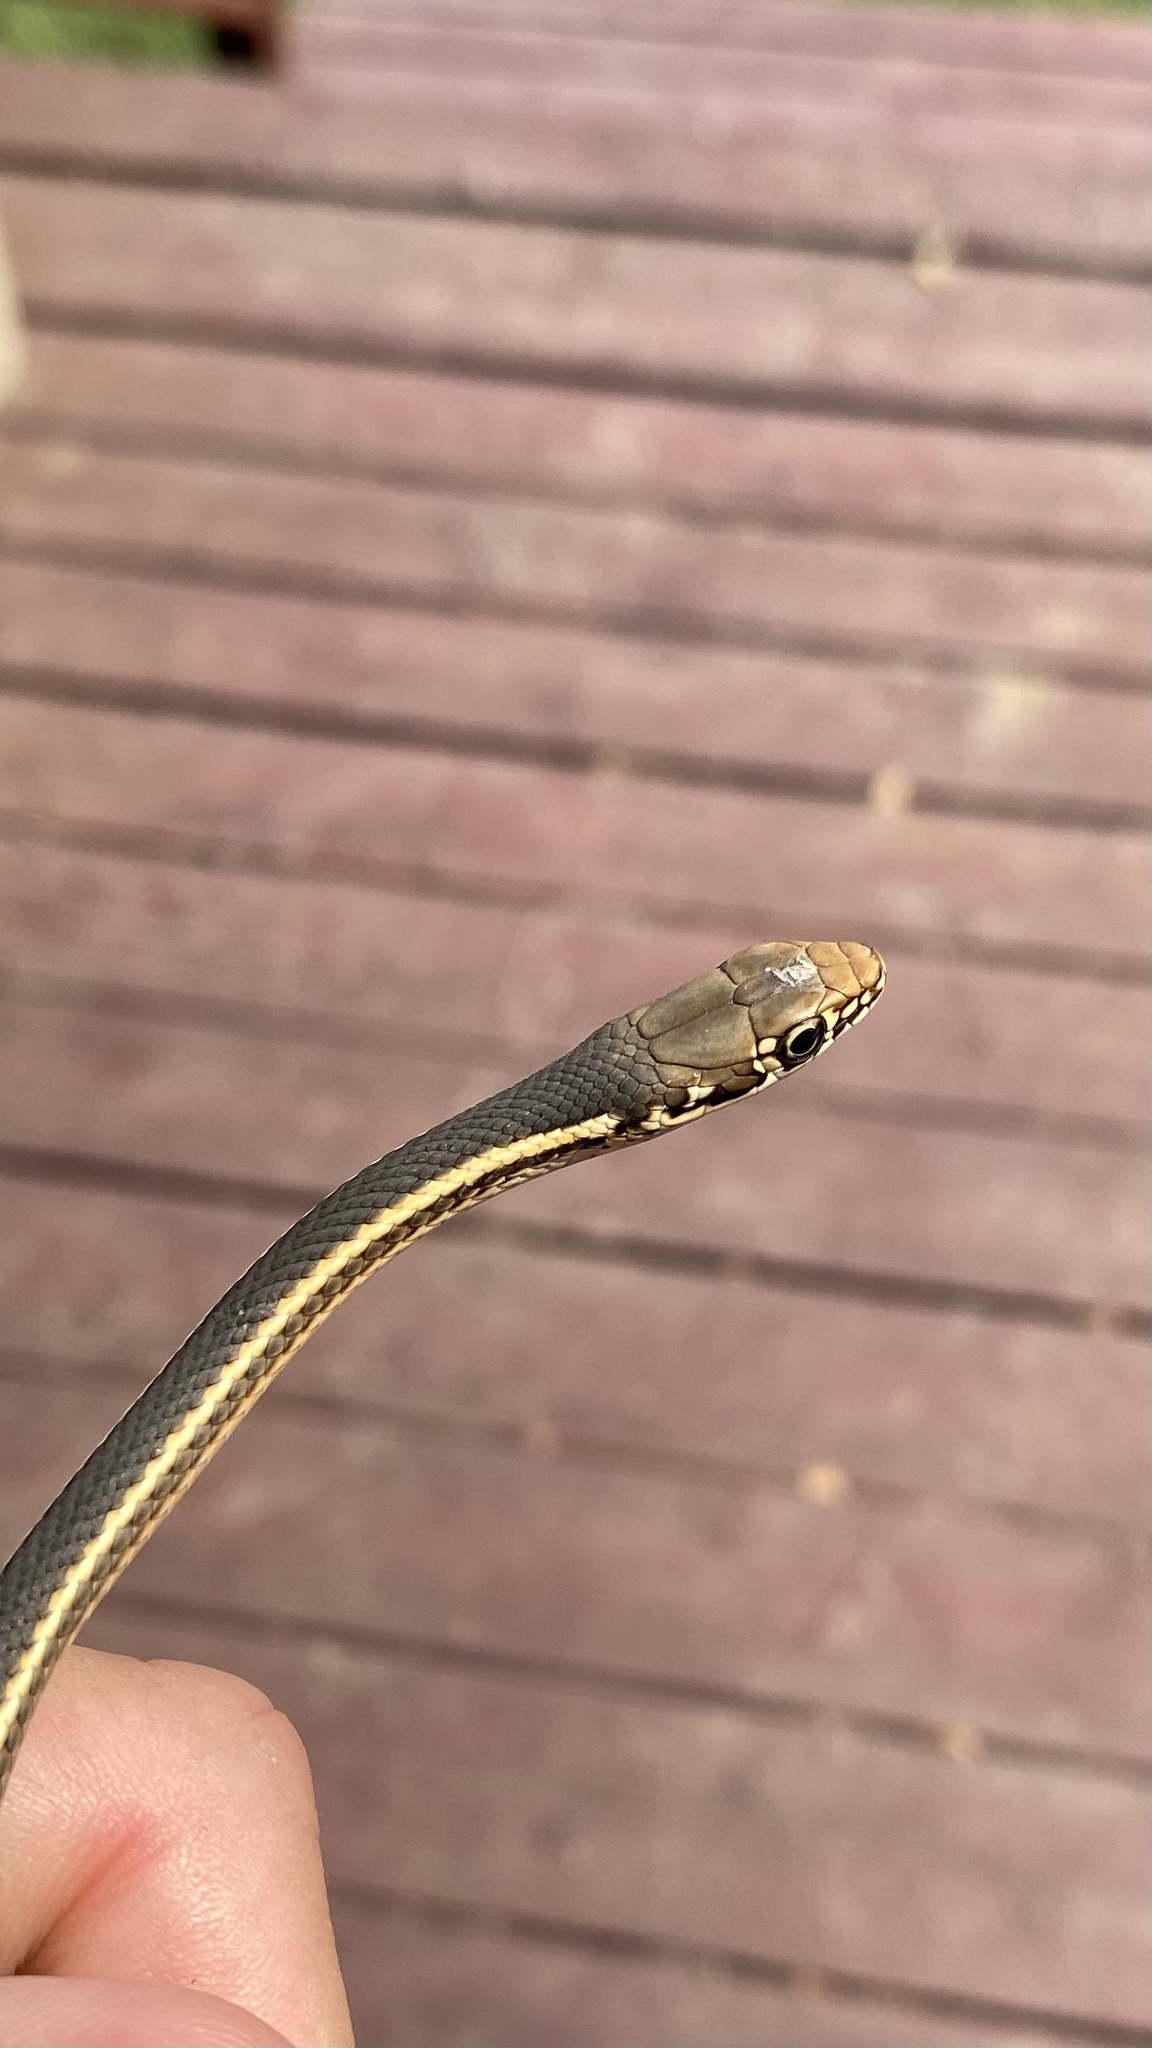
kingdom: Animalia
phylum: Chordata
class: Squamata
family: Colubridae
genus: Masticophis
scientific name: Masticophis lateralis
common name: Striped racer
